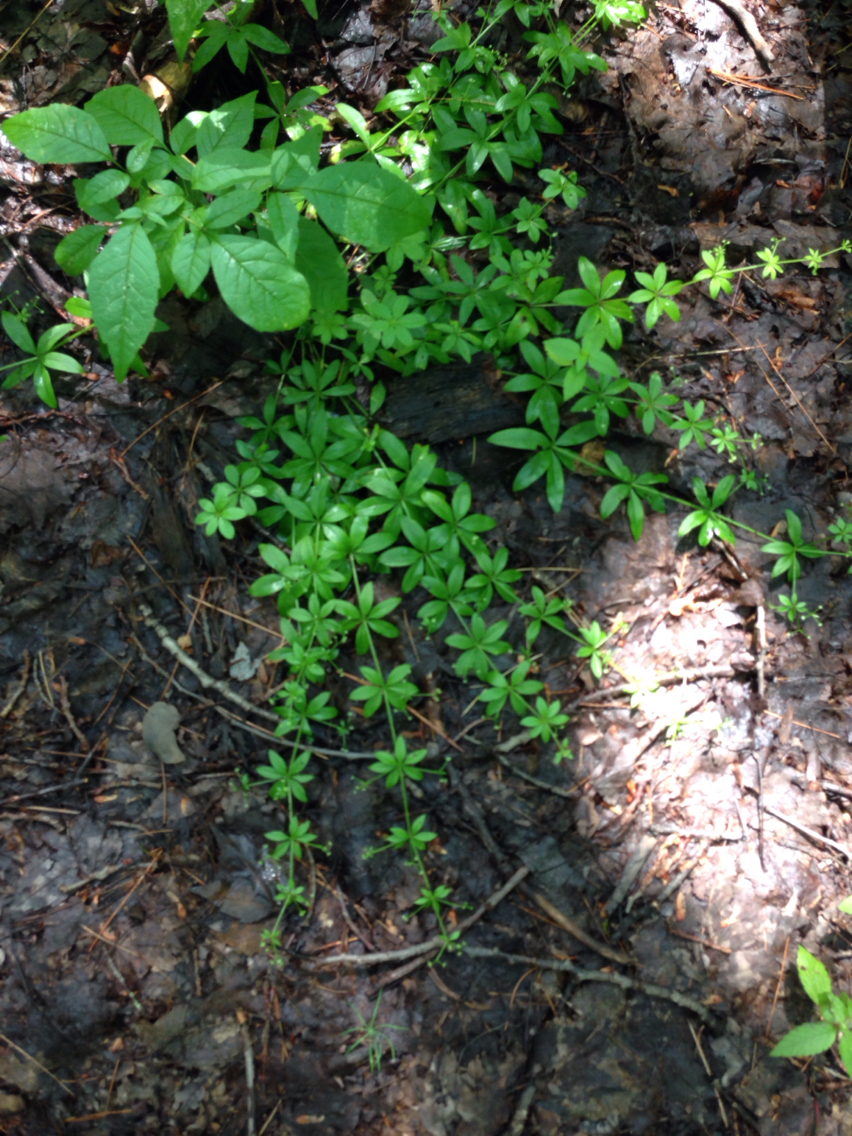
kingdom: Plantae
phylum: Tracheophyta
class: Magnoliopsida
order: Gentianales
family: Rubiaceae
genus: Galium
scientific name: Galium triflorum
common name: Fragrant bedstraw
